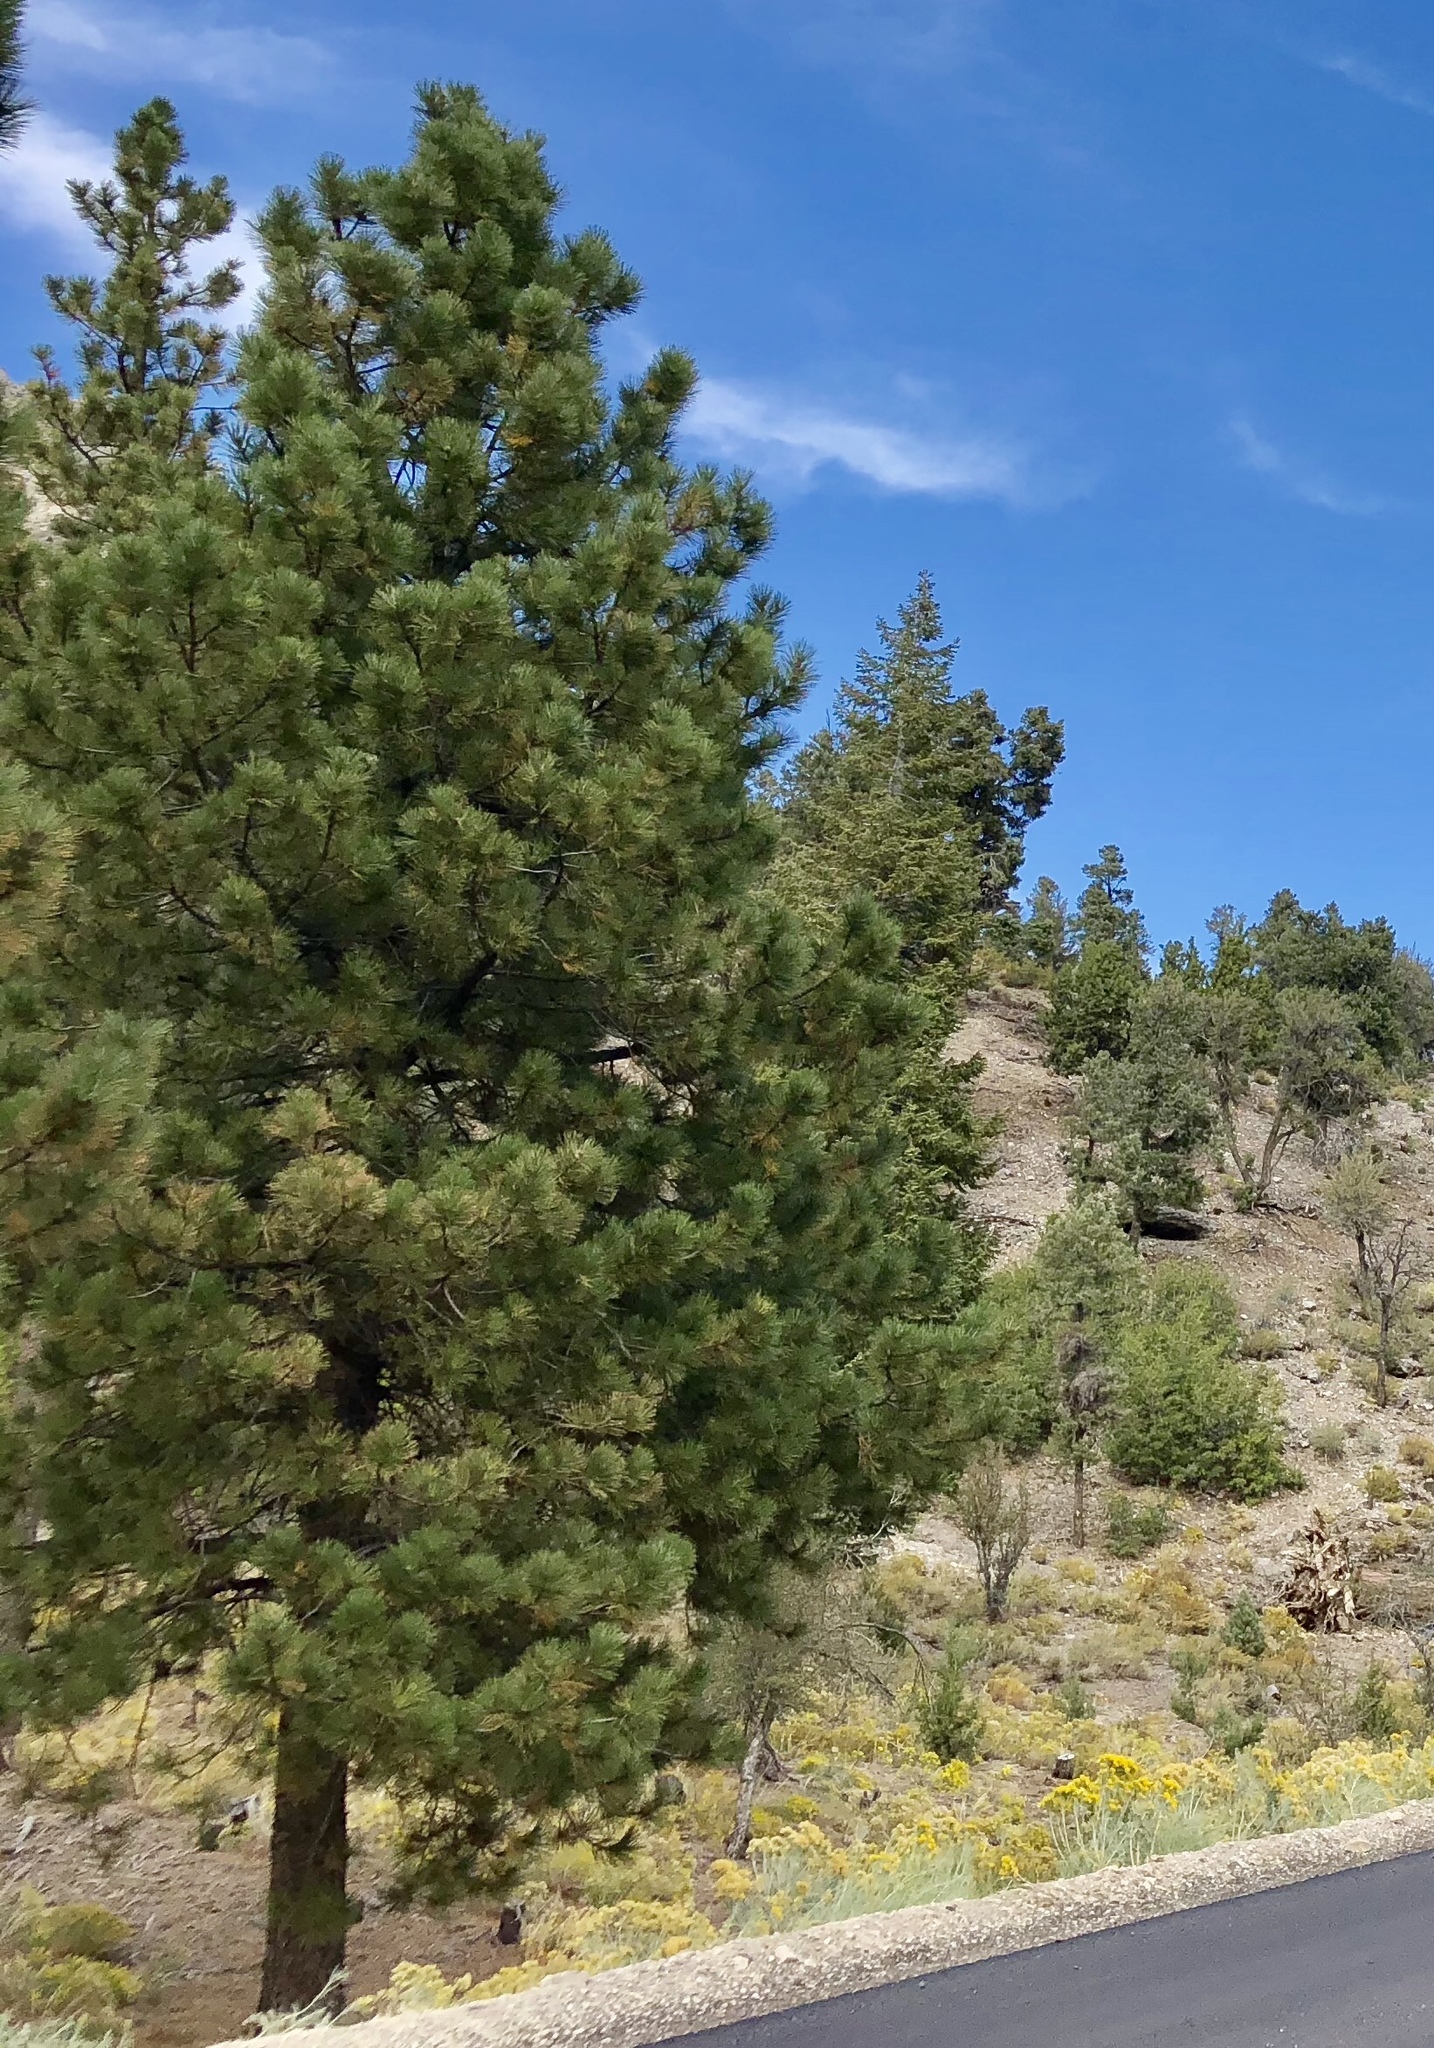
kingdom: Plantae
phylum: Tracheophyta
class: Pinopsida
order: Pinales
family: Pinaceae
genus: Pinus
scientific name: Pinus ponderosa
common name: Western yellow-pine
